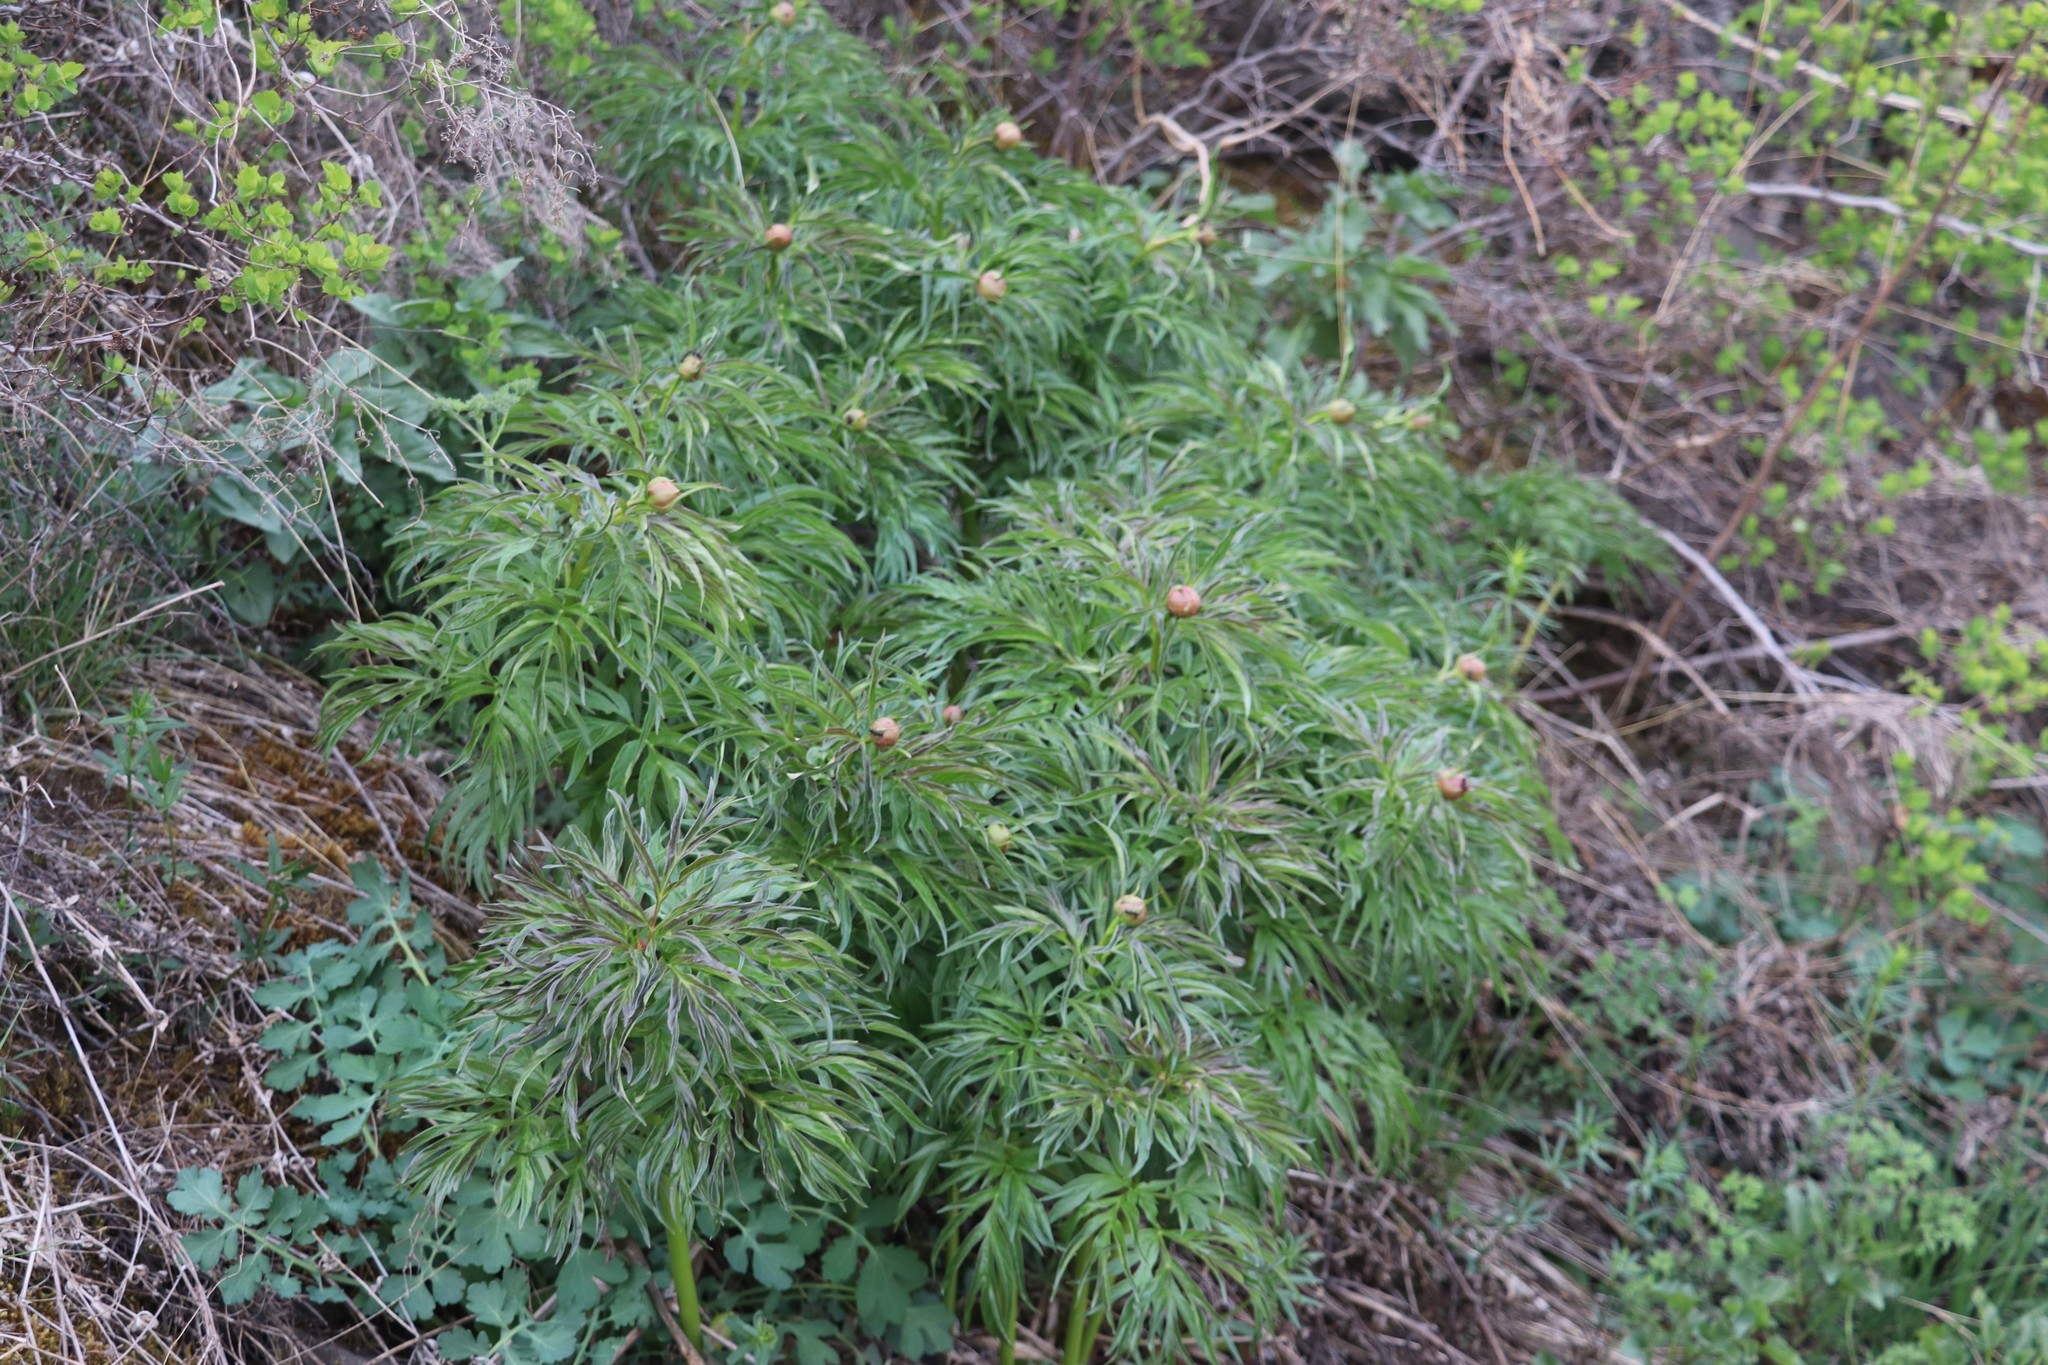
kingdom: Plantae
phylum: Tracheophyta
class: Magnoliopsida
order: Saxifragales
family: Paeoniaceae
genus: Paeonia
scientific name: Paeonia anomala
